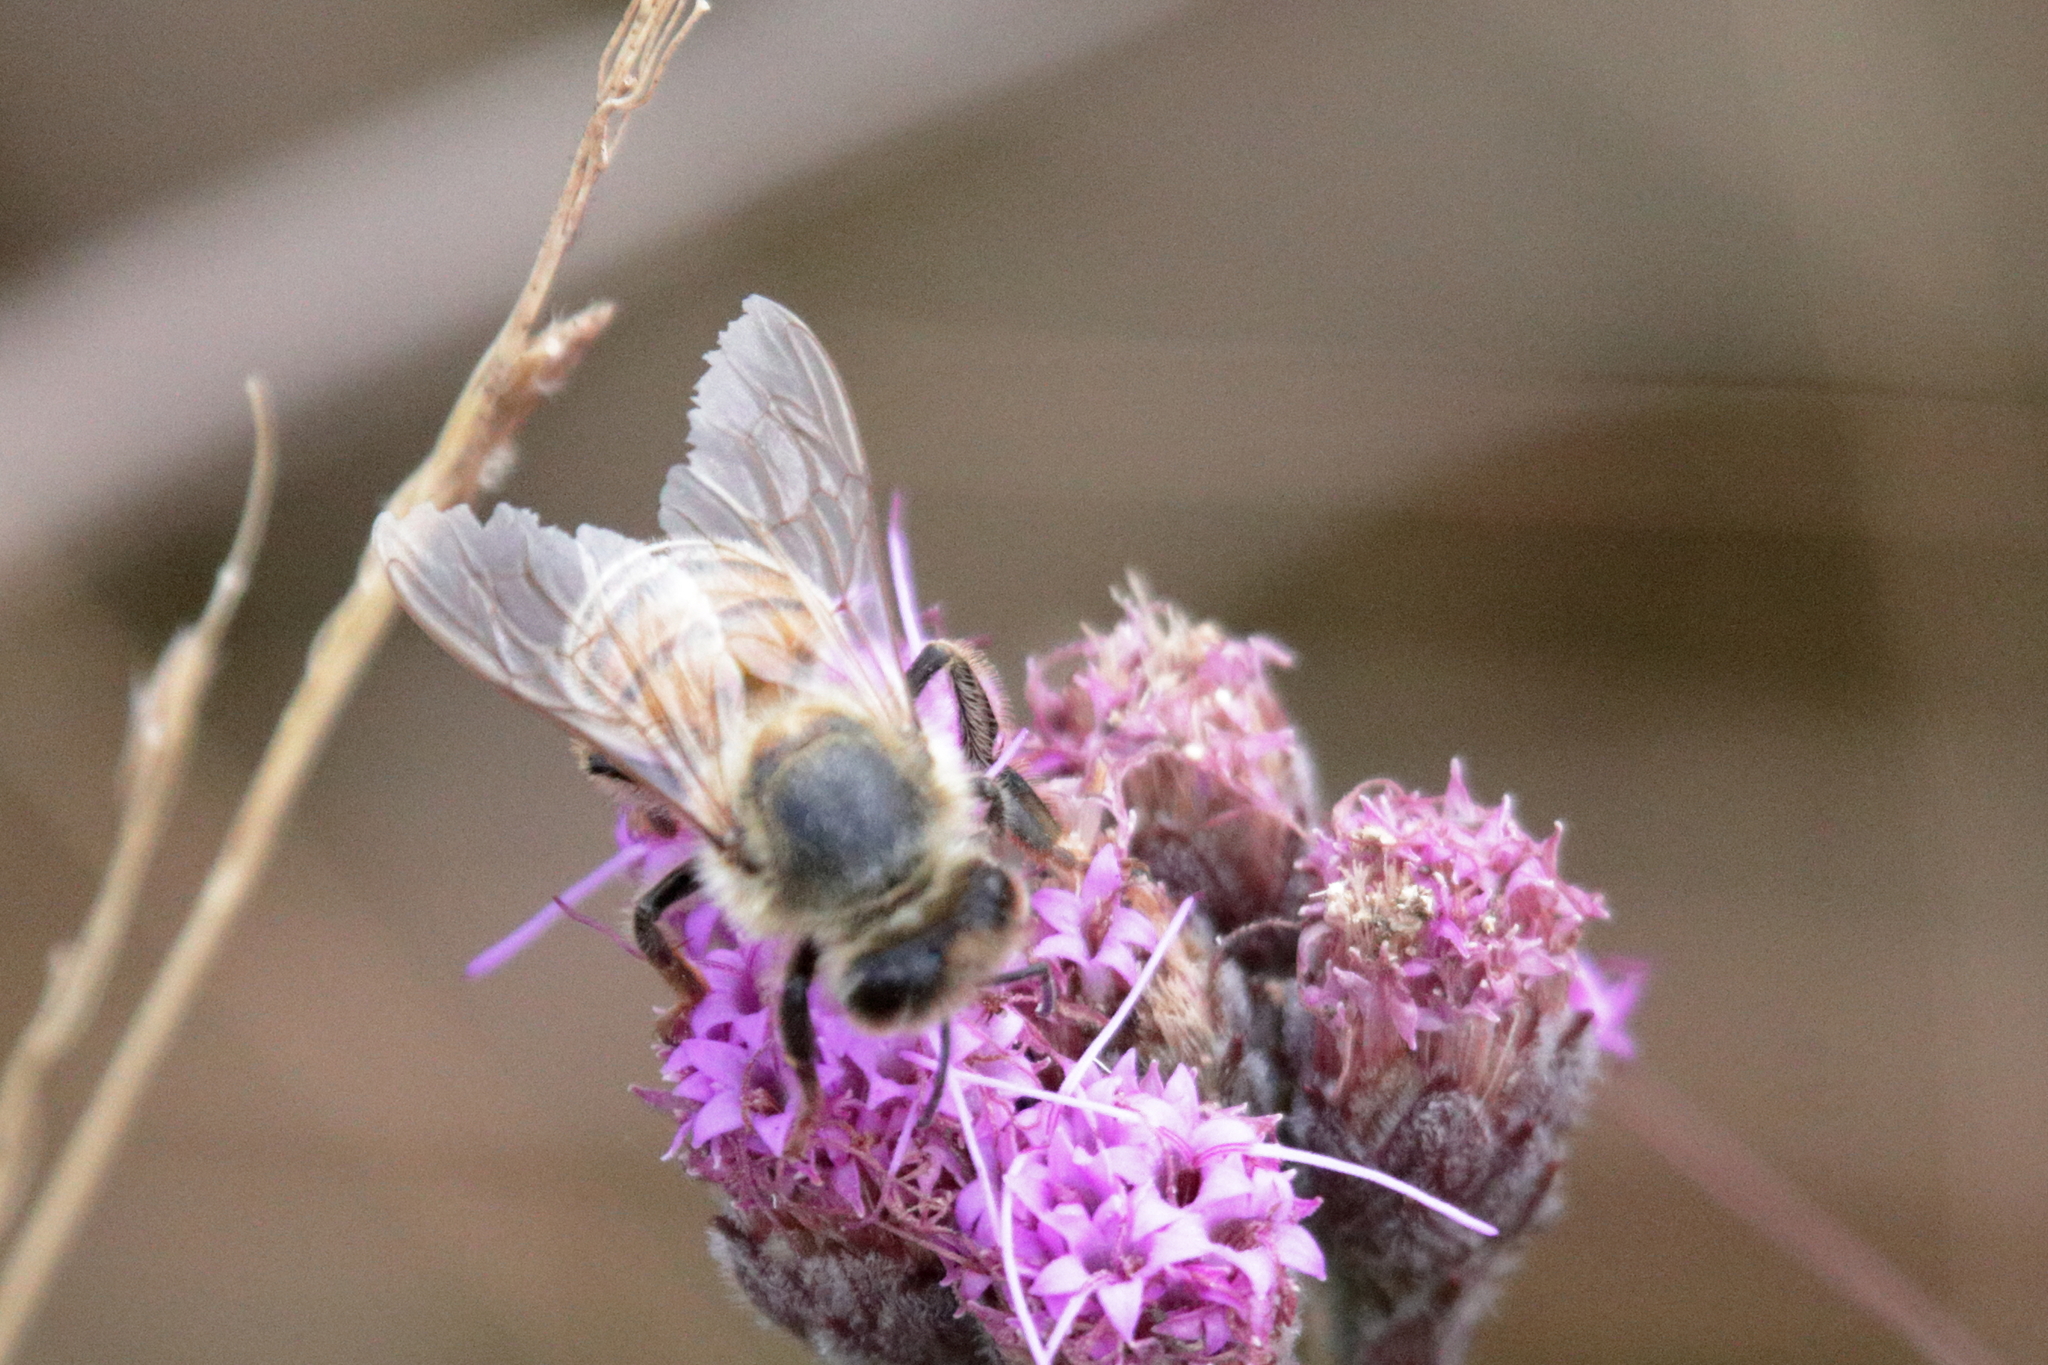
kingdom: Animalia
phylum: Arthropoda
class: Insecta
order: Hymenoptera
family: Apidae
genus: Apis
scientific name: Apis mellifera
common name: Honey bee
